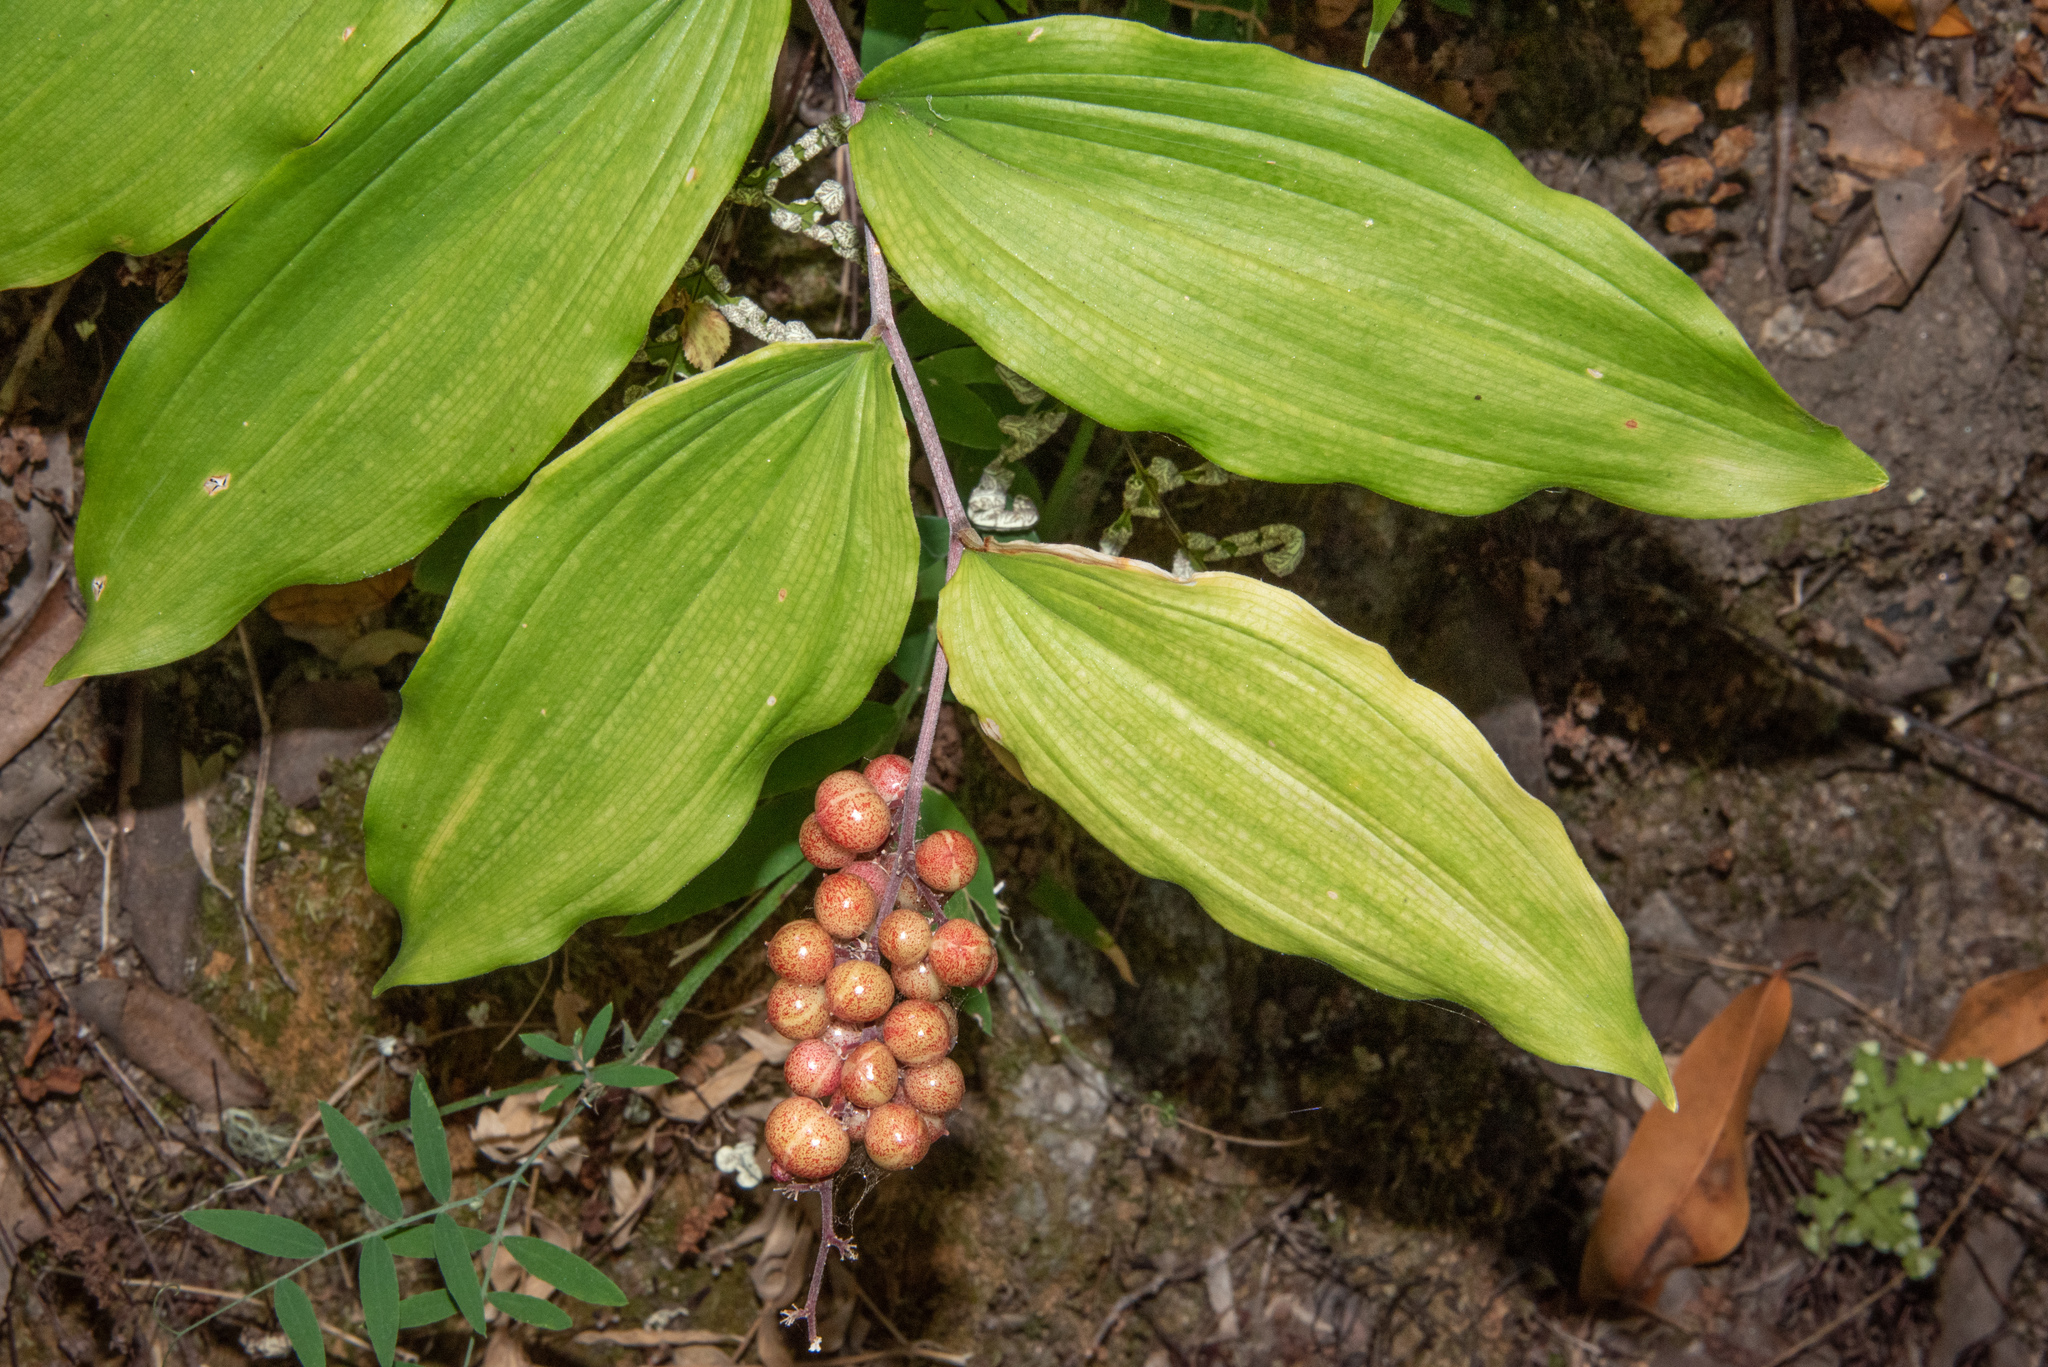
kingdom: Plantae
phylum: Tracheophyta
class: Liliopsida
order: Asparagales
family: Asparagaceae
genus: Maianthemum
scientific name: Maianthemum racemosum
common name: False spikenard
